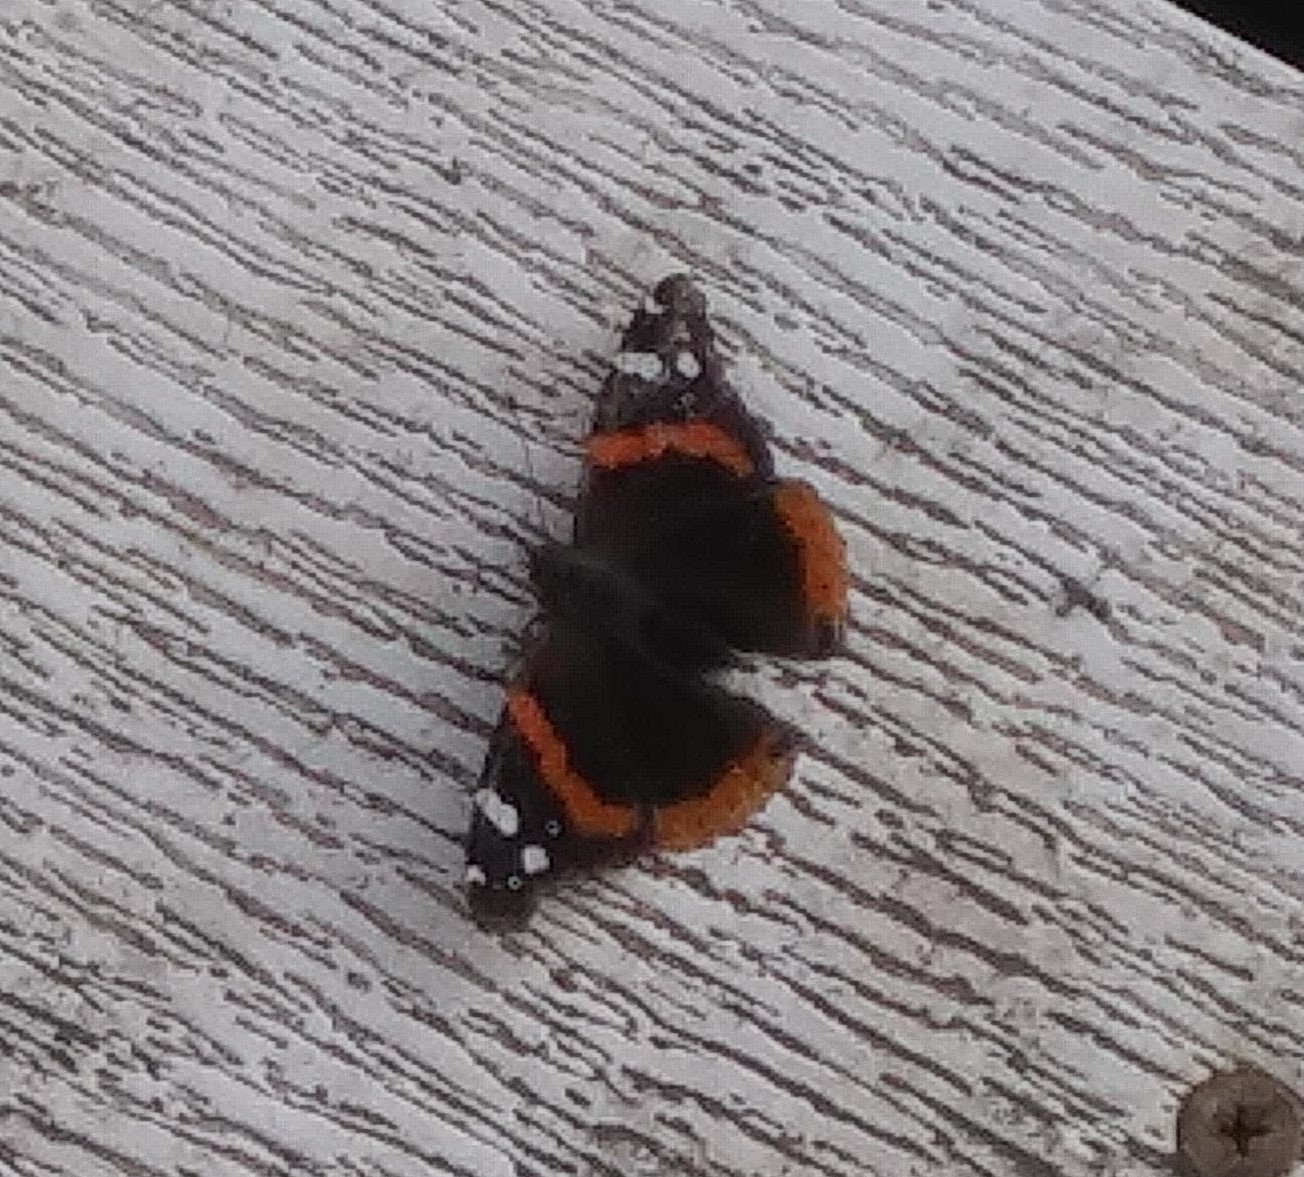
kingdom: Animalia
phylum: Arthropoda
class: Insecta
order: Lepidoptera
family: Nymphalidae
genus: Vanessa
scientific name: Vanessa atalanta
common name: Red admiral
